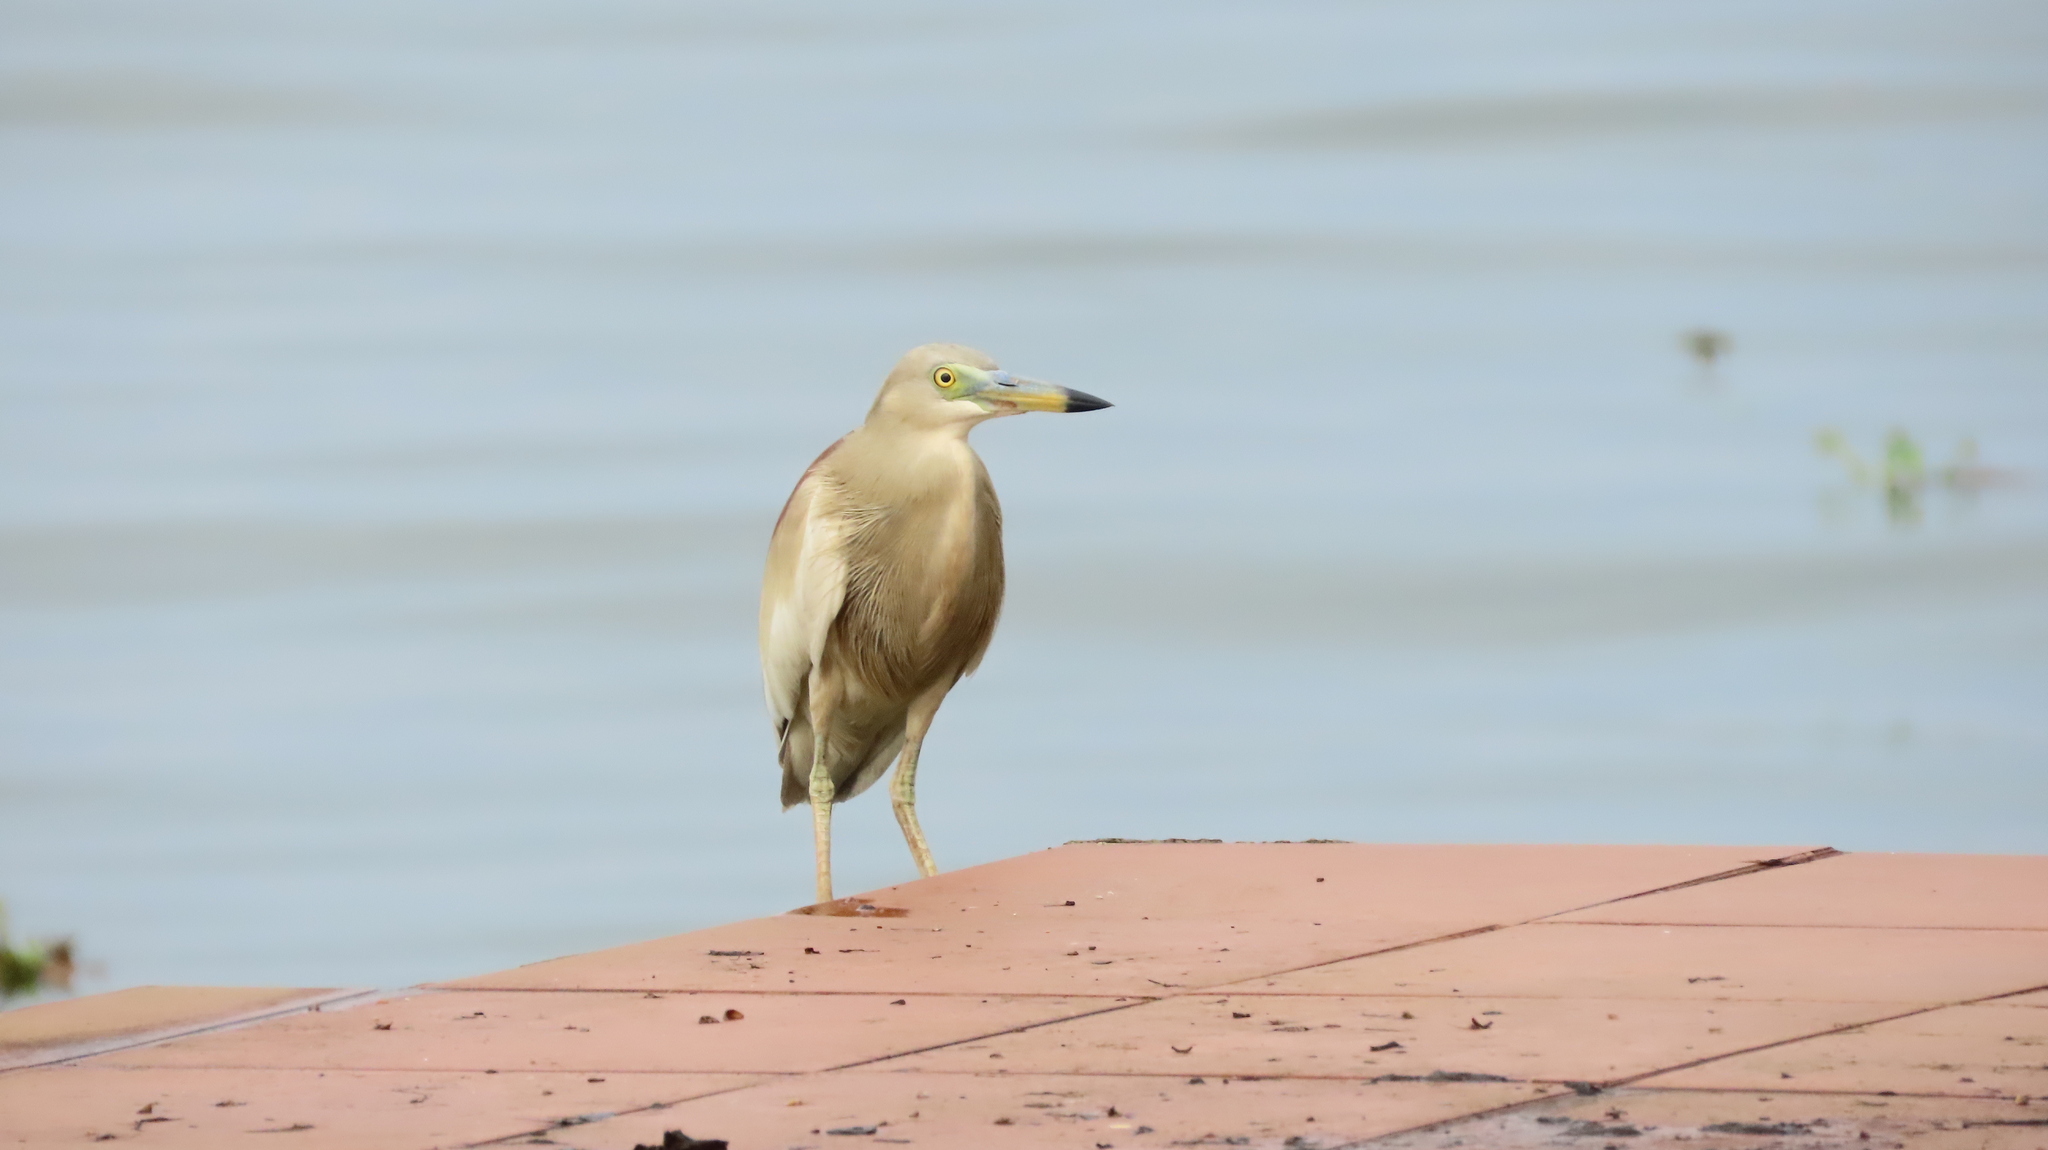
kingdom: Animalia
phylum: Chordata
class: Aves
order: Pelecaniformes
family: Ardeidae
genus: Ardeola
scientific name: Ardeola grayii
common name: Indian pond heron
